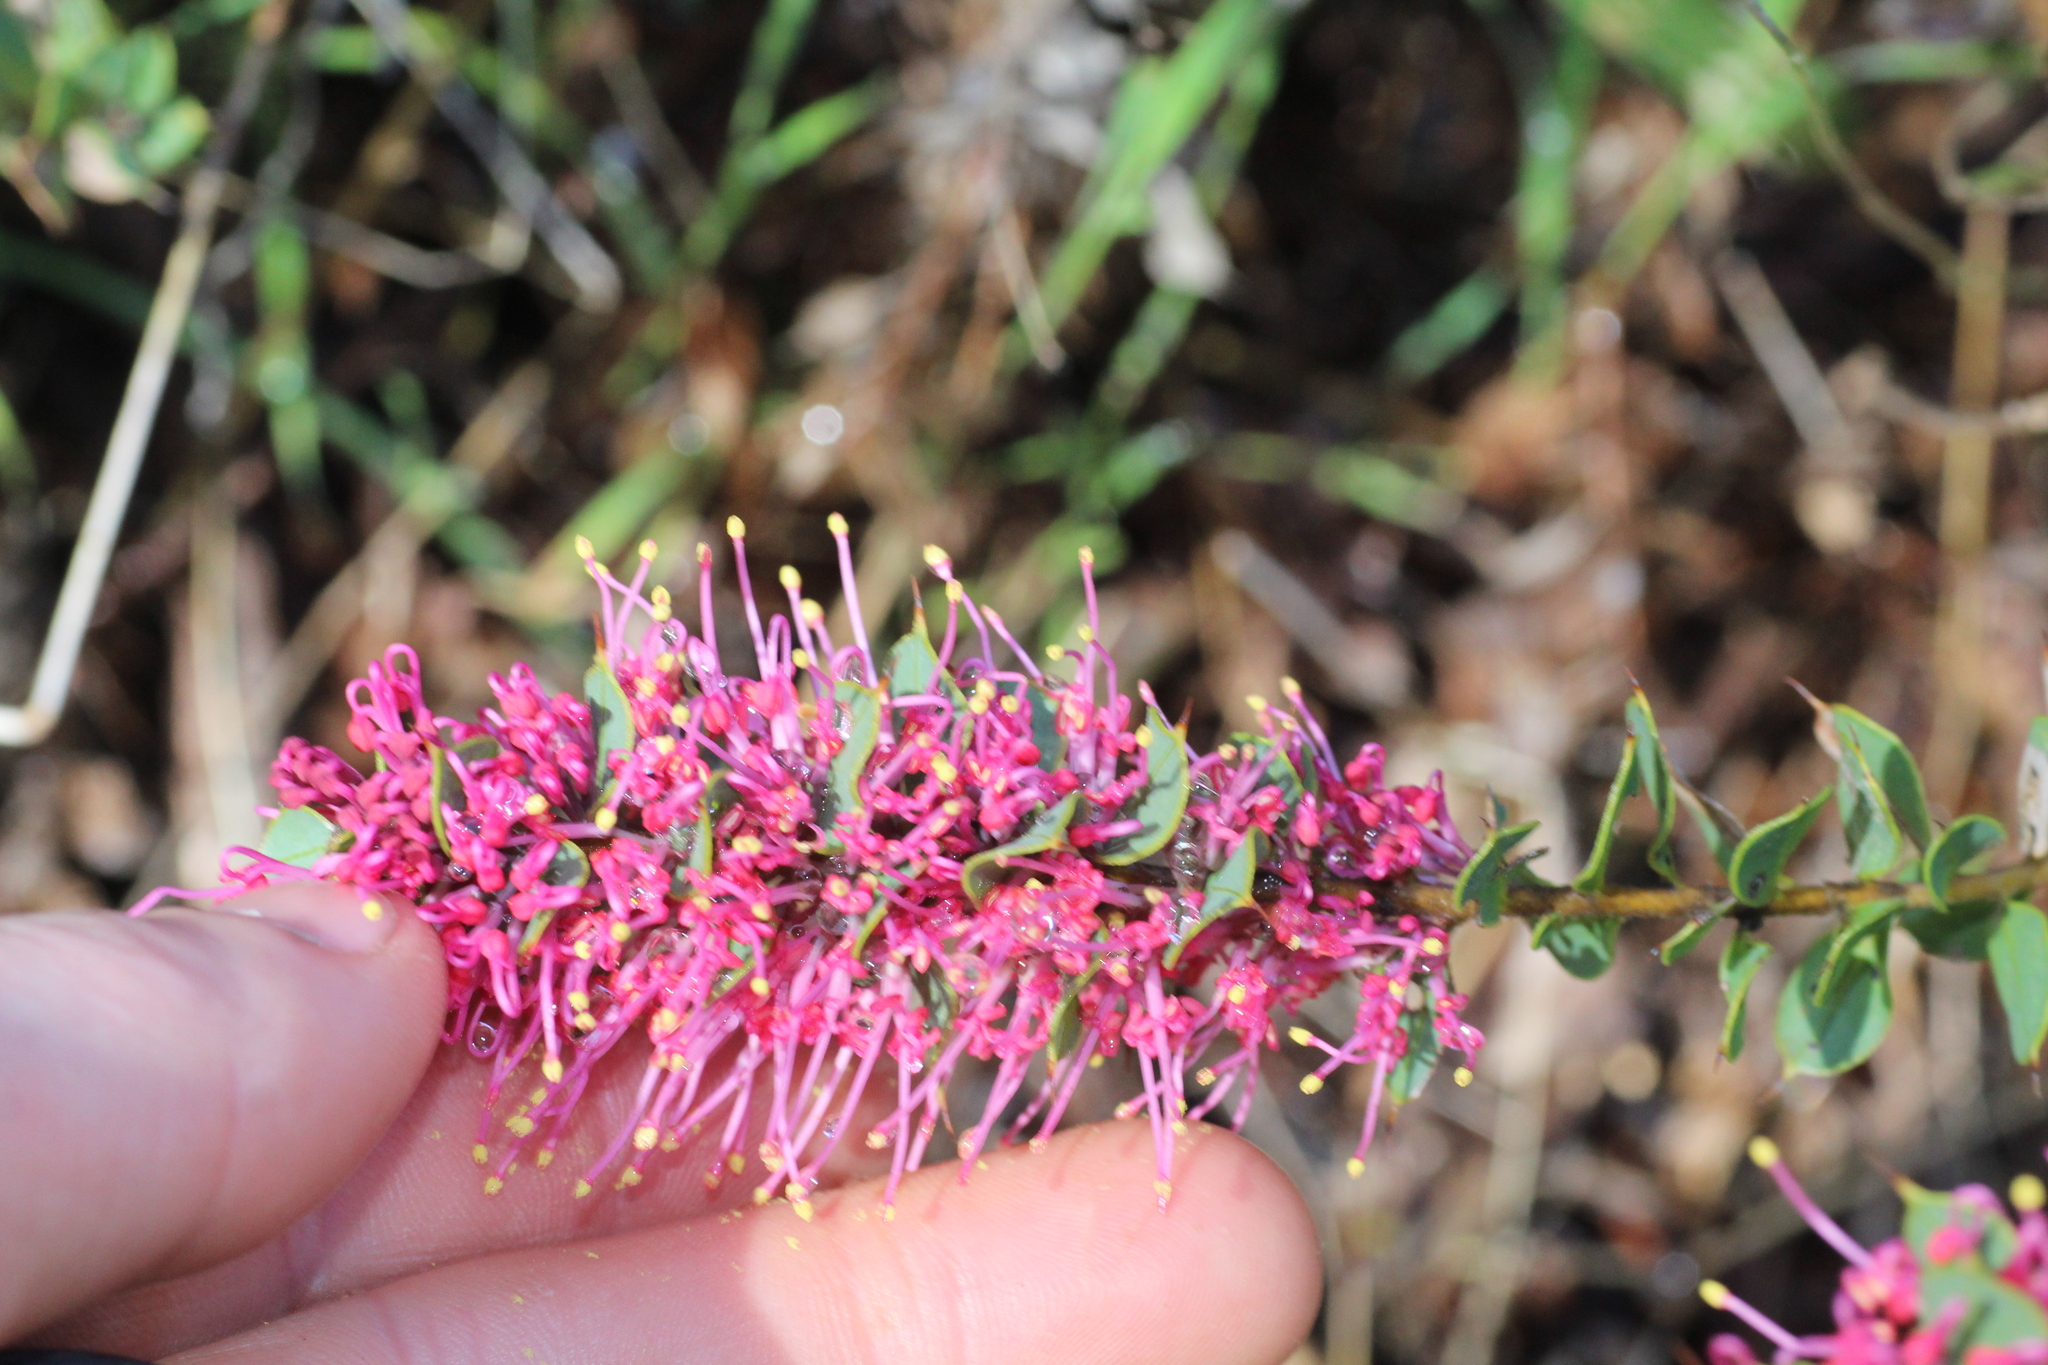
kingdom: Plantae
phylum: Tracheophyta
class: Magnoliopsida
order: Proteales
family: Proteaceae
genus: Hakea
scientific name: Hakea myrtoides
